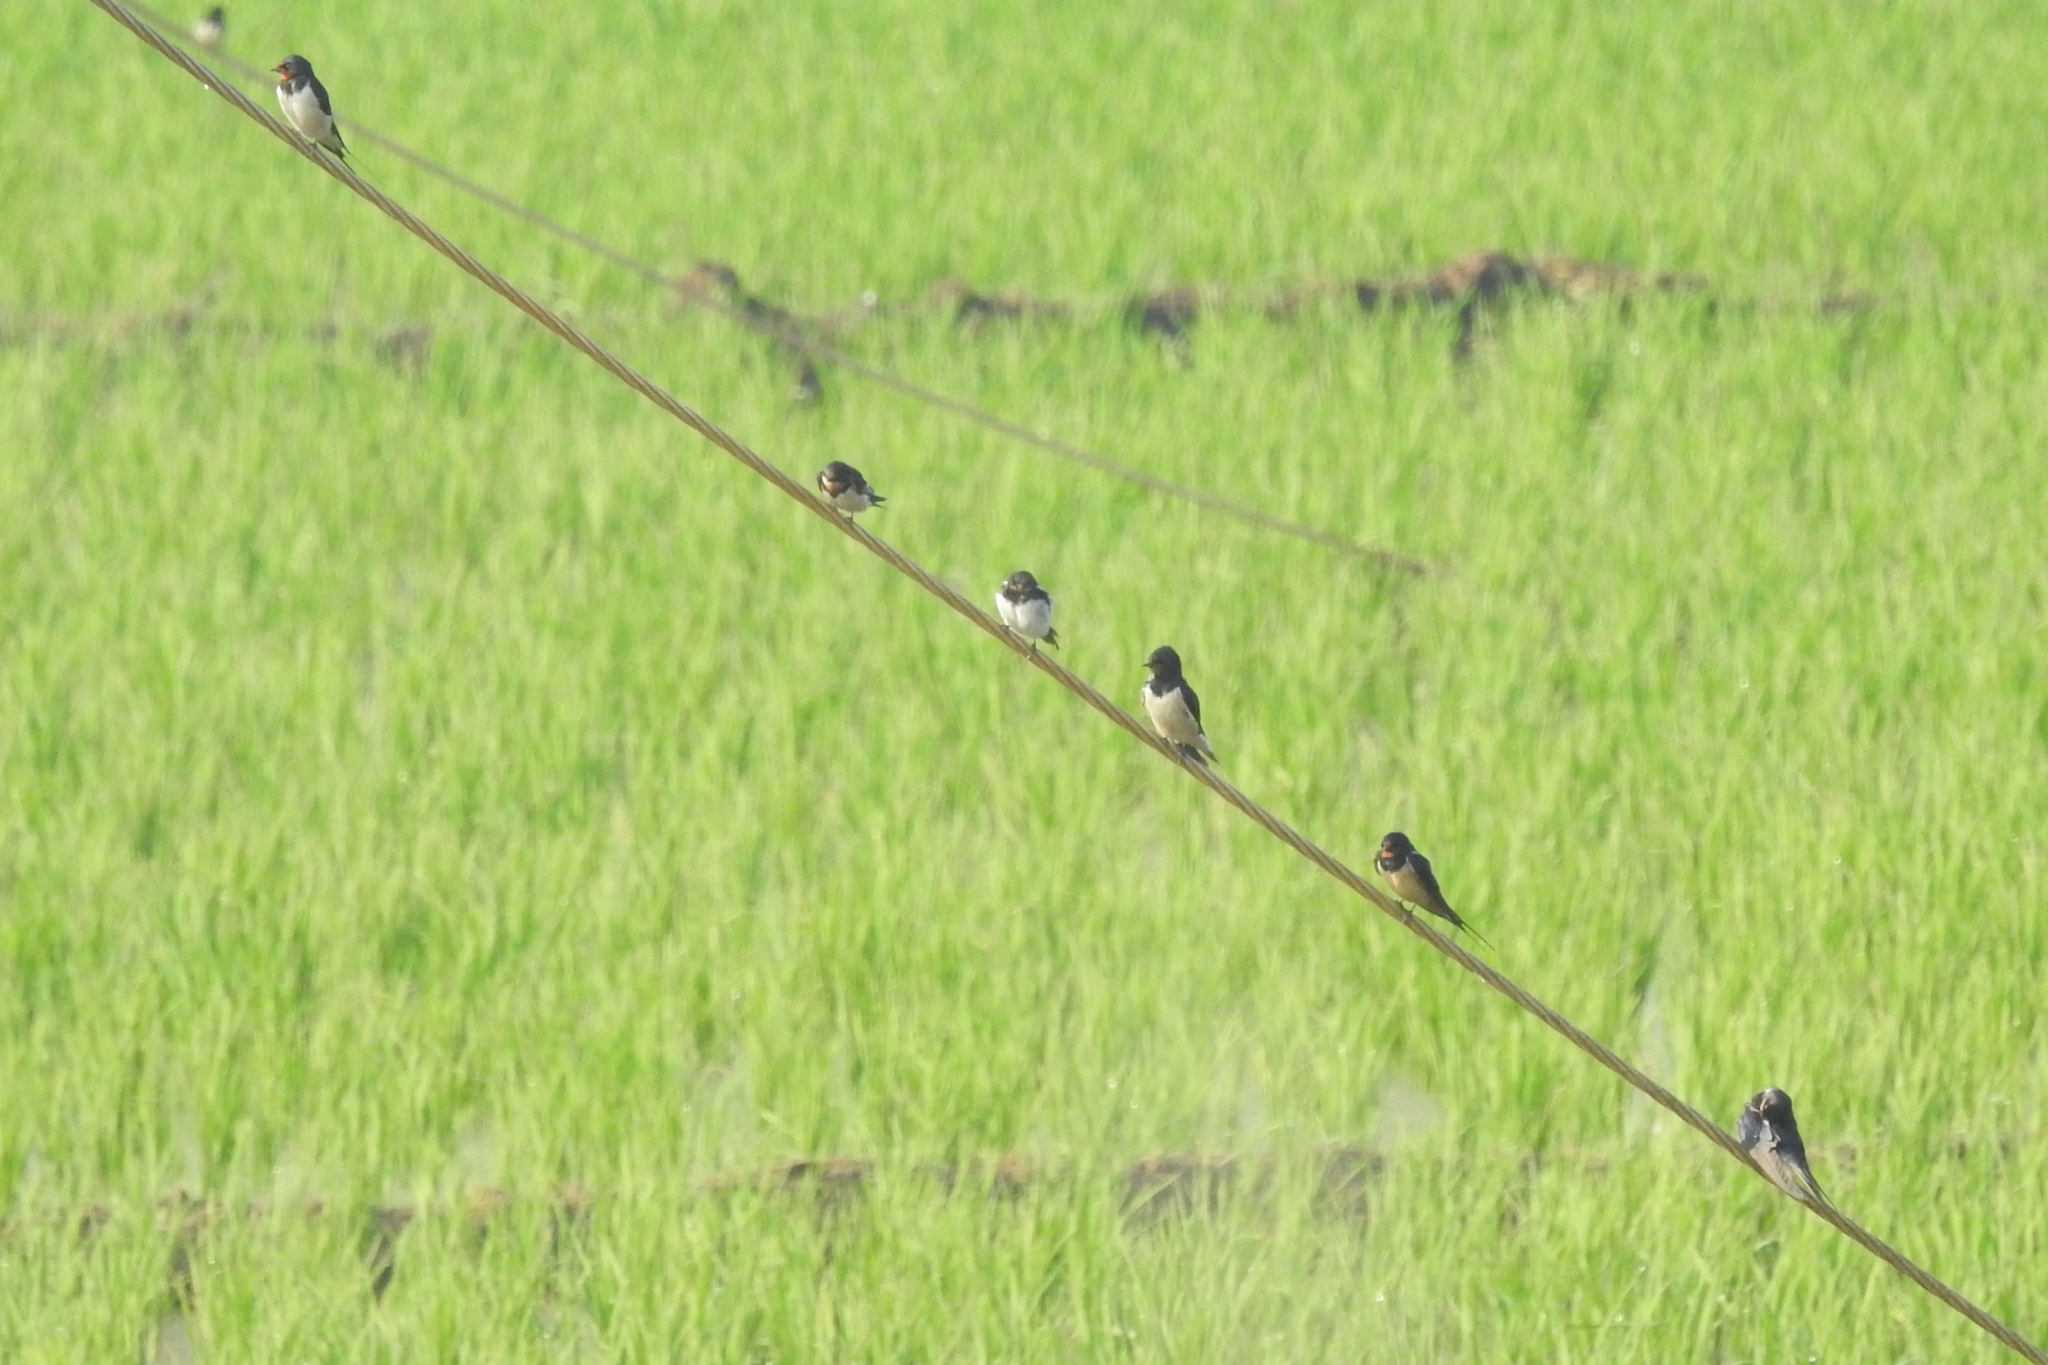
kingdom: Animalia
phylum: Chordata
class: Aves
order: Passeriformes
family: Hirundinidae
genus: Hirundo
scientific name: Hirundo rustica
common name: Barn swallow
